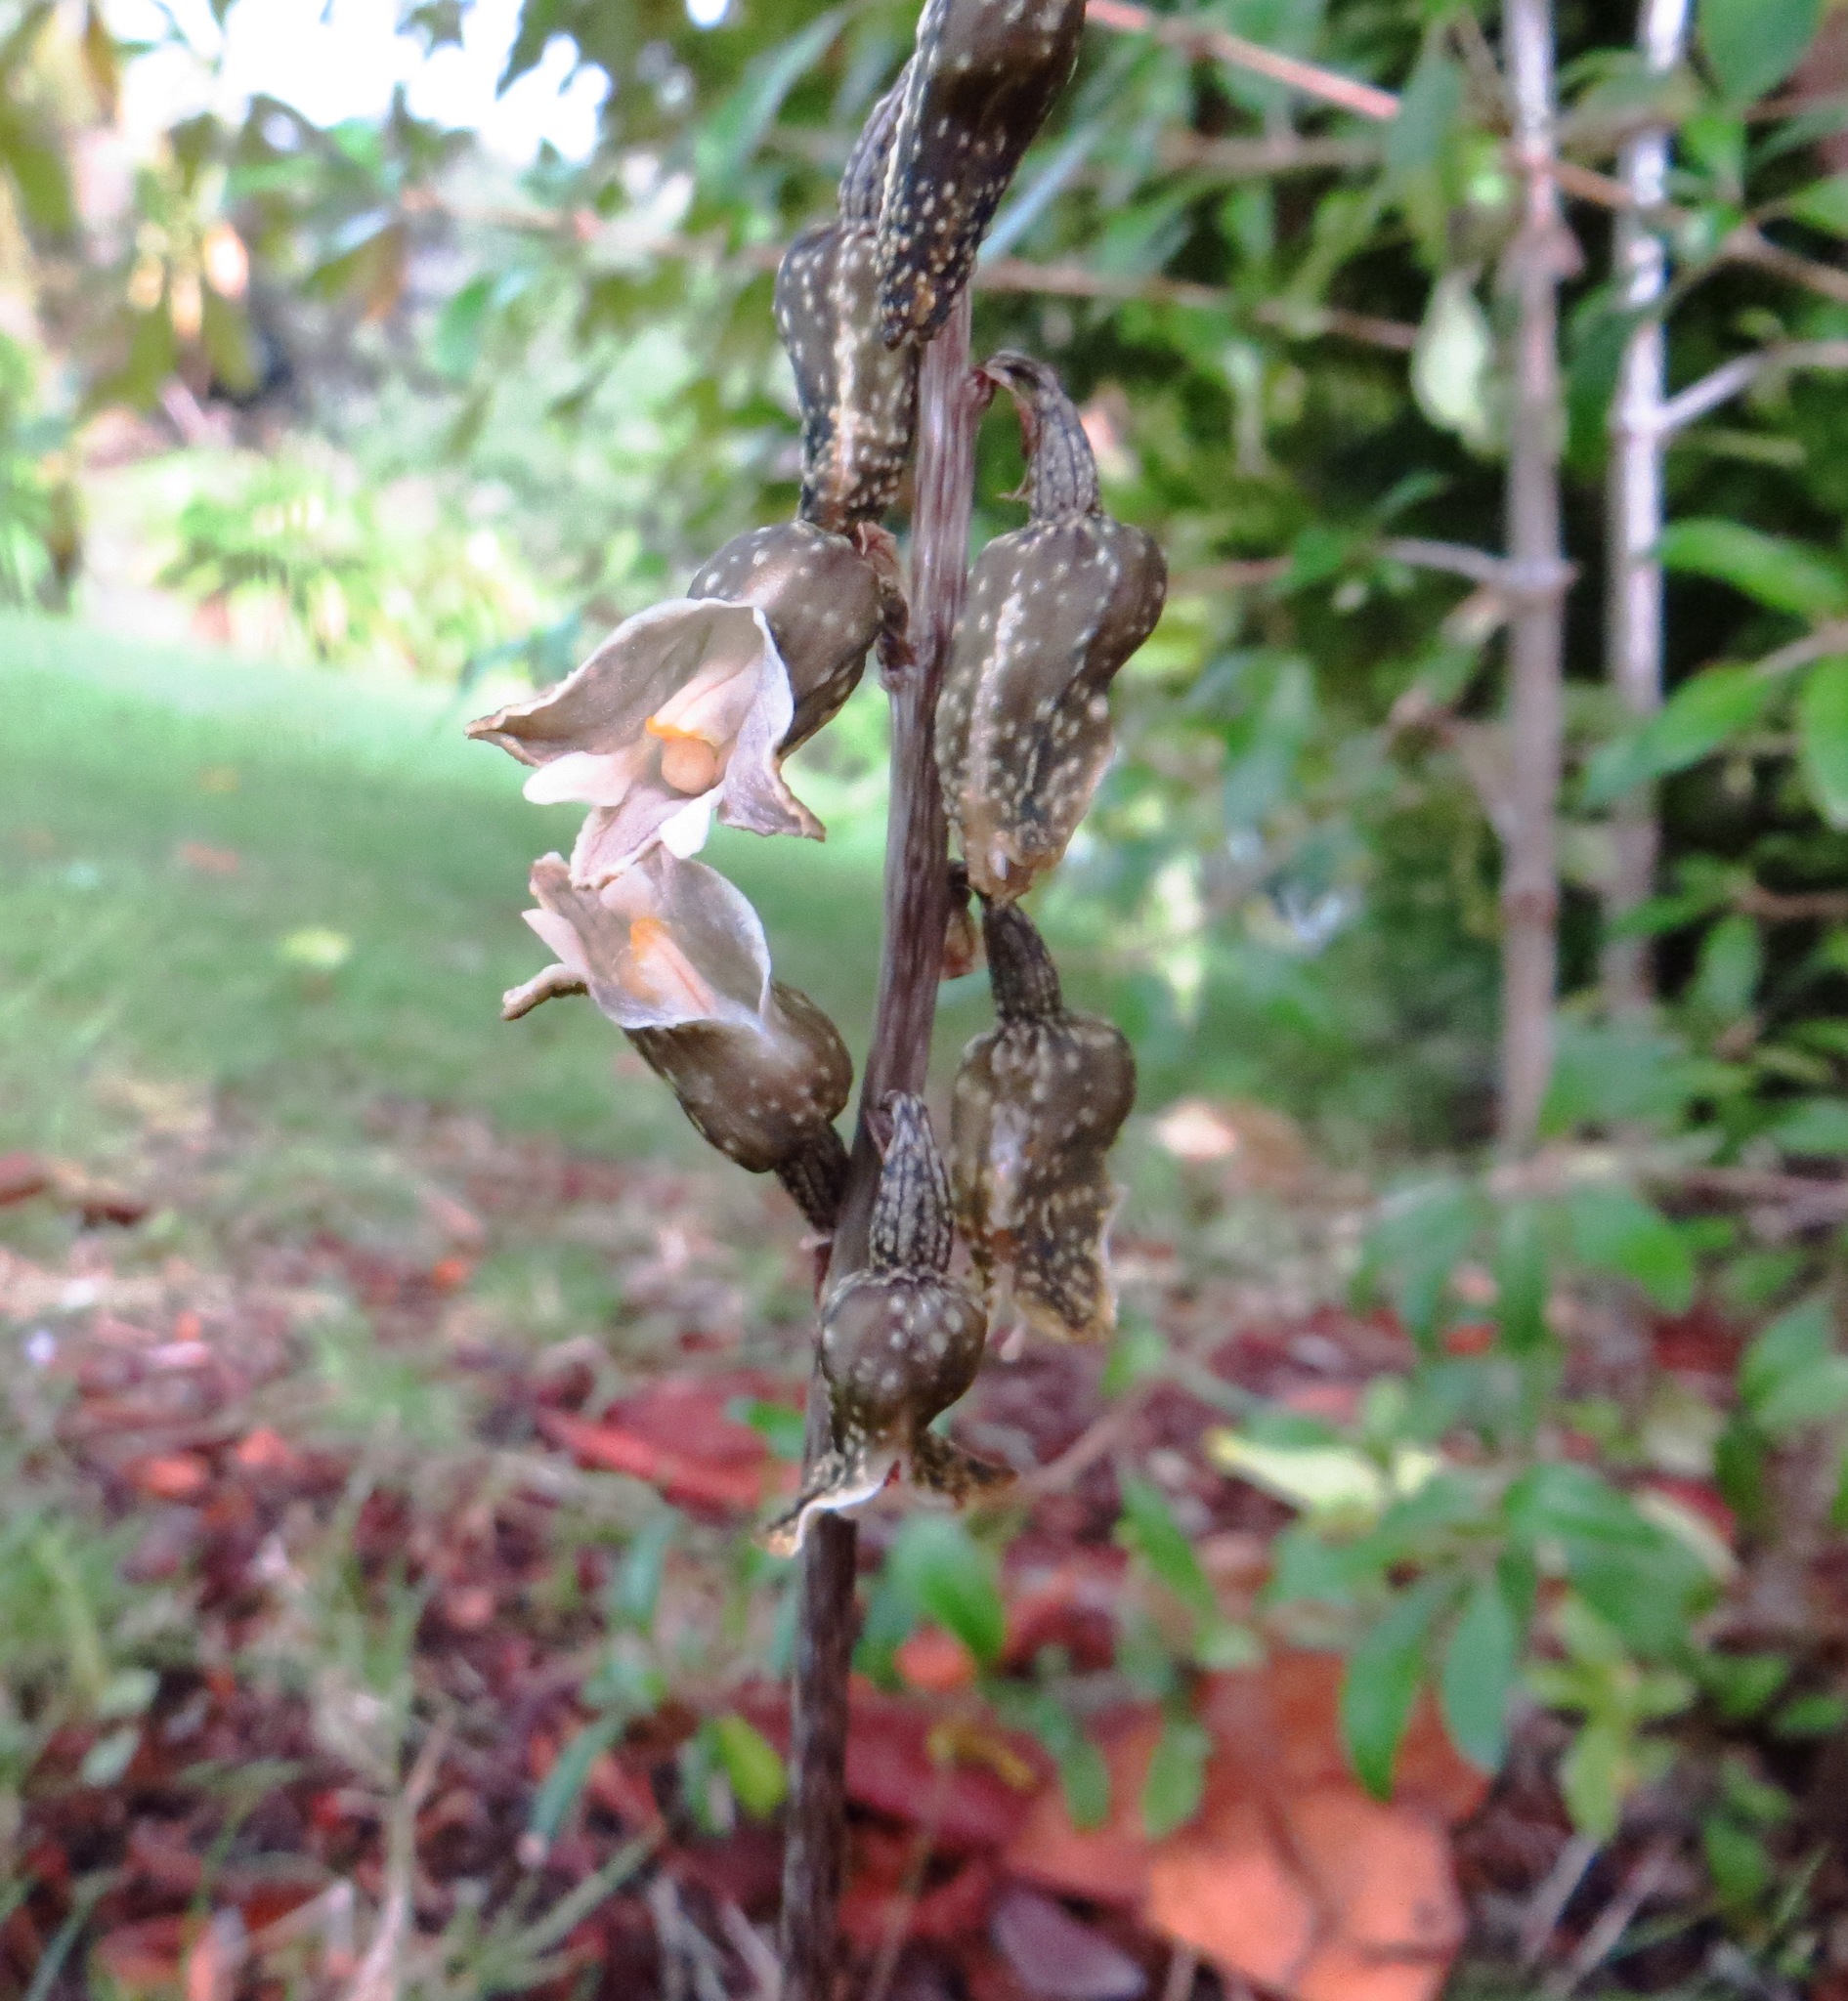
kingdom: Plantae
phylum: Tracheophyta
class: Liliopsida
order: Asparagales
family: Orchidaceae
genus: Gastrodia
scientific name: Gastrodia molloyi
